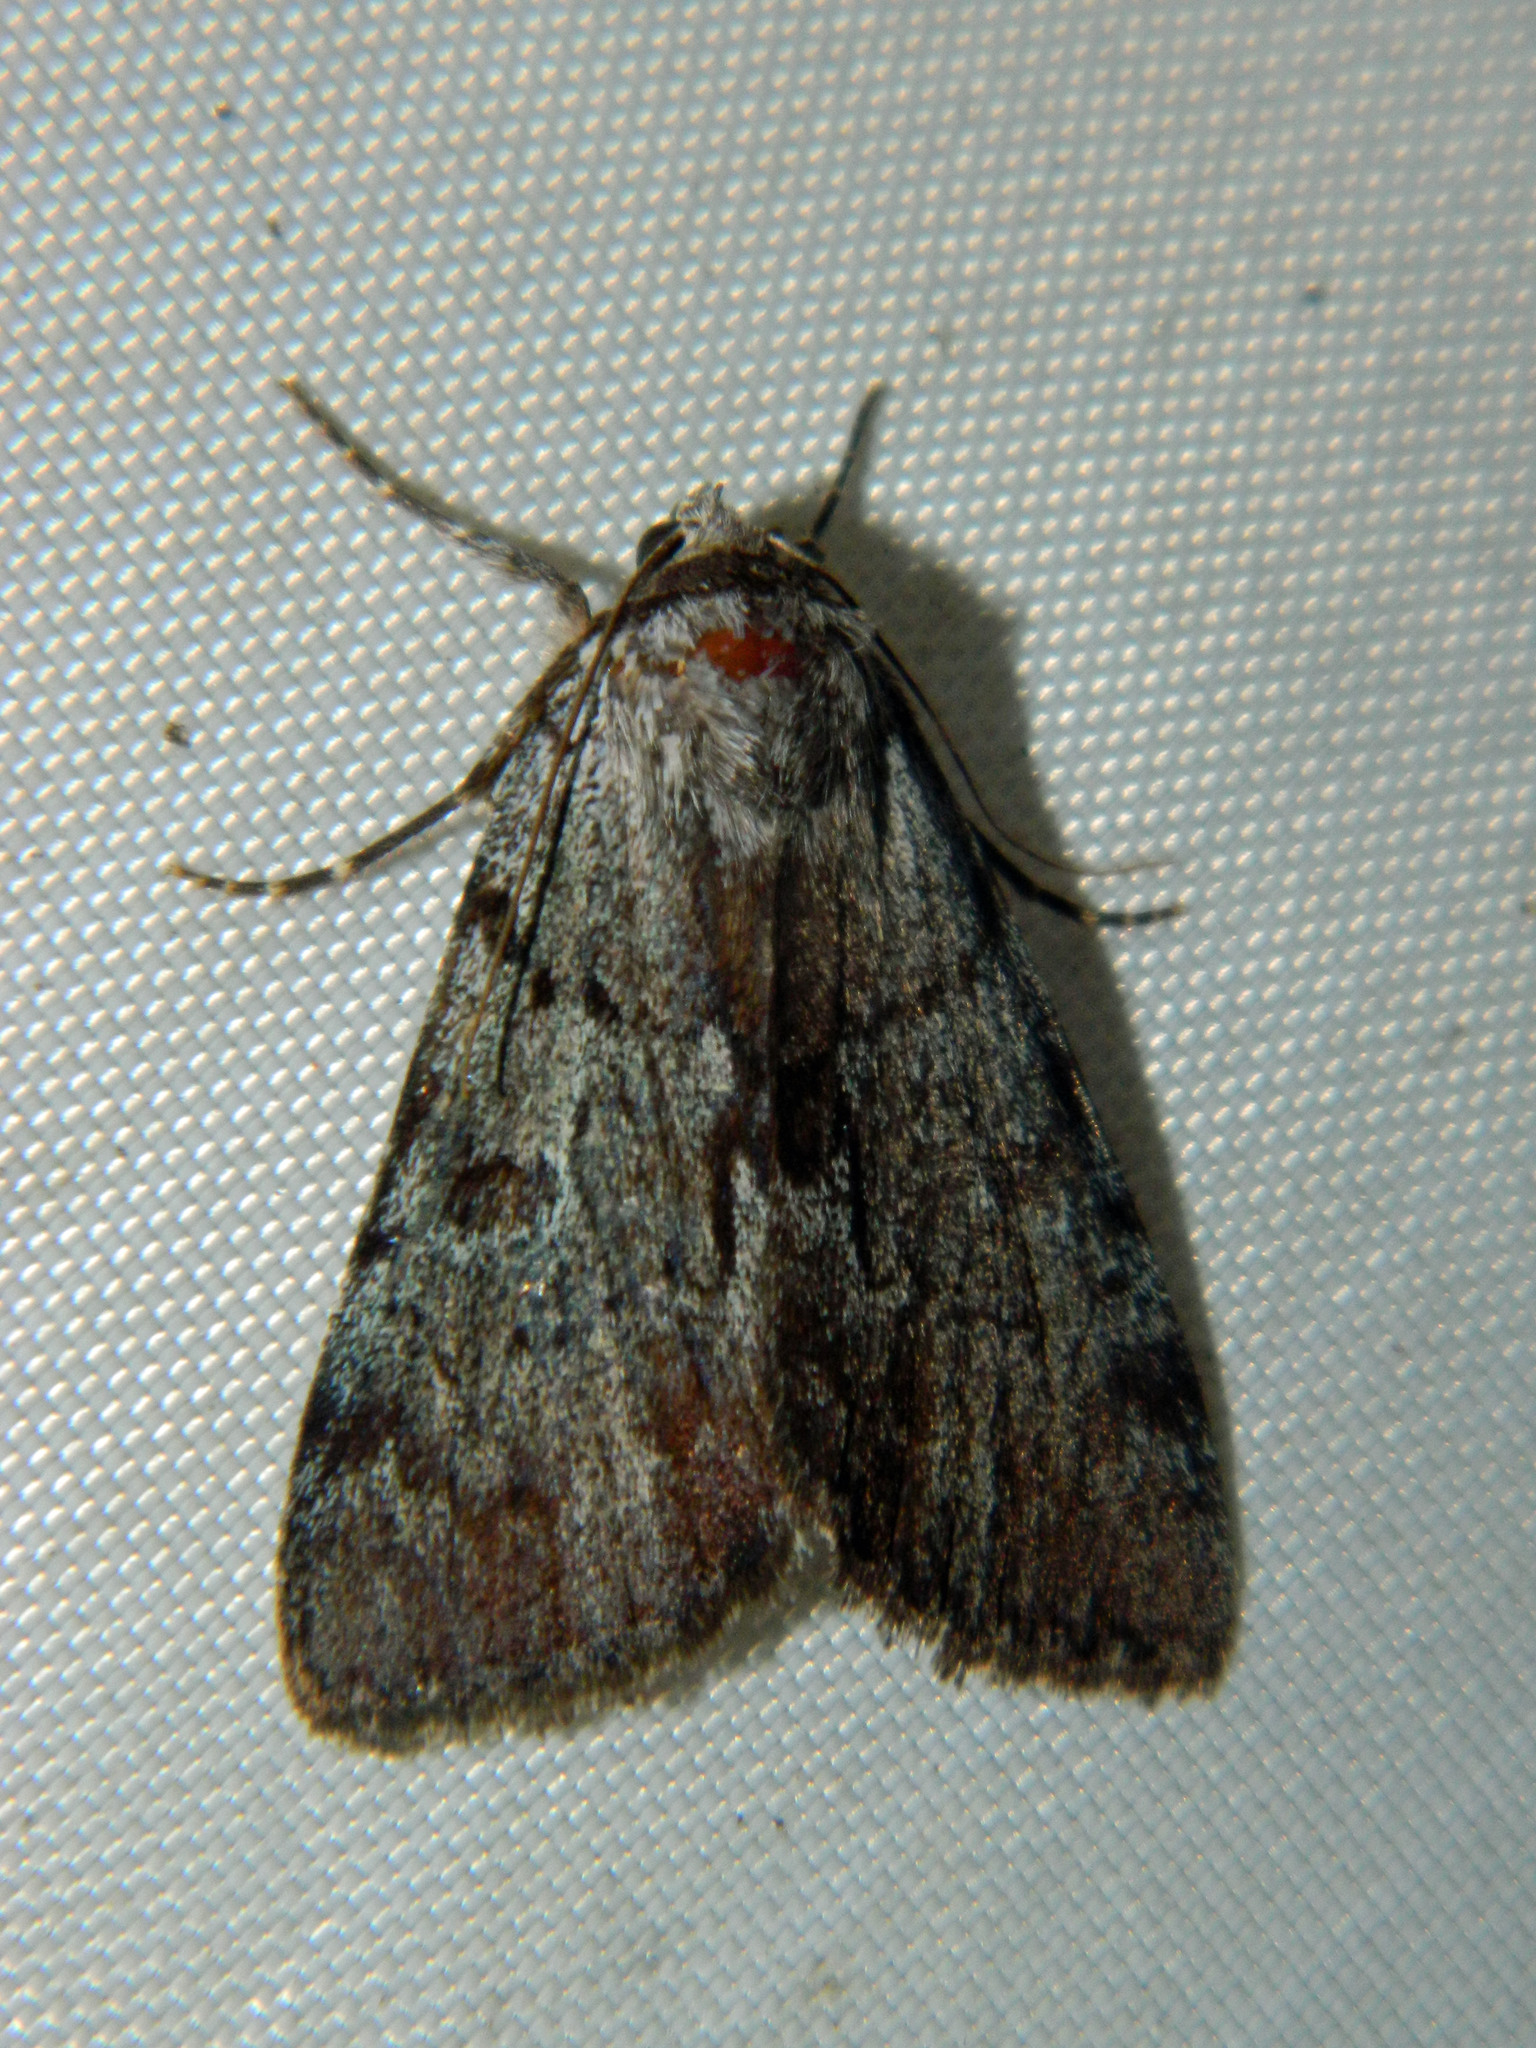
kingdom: Animalia
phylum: Arthropoda
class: Insecta
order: Lepidoptera
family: Erebidae
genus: Catocala
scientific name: Catocala sordida
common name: Sordid underwing
